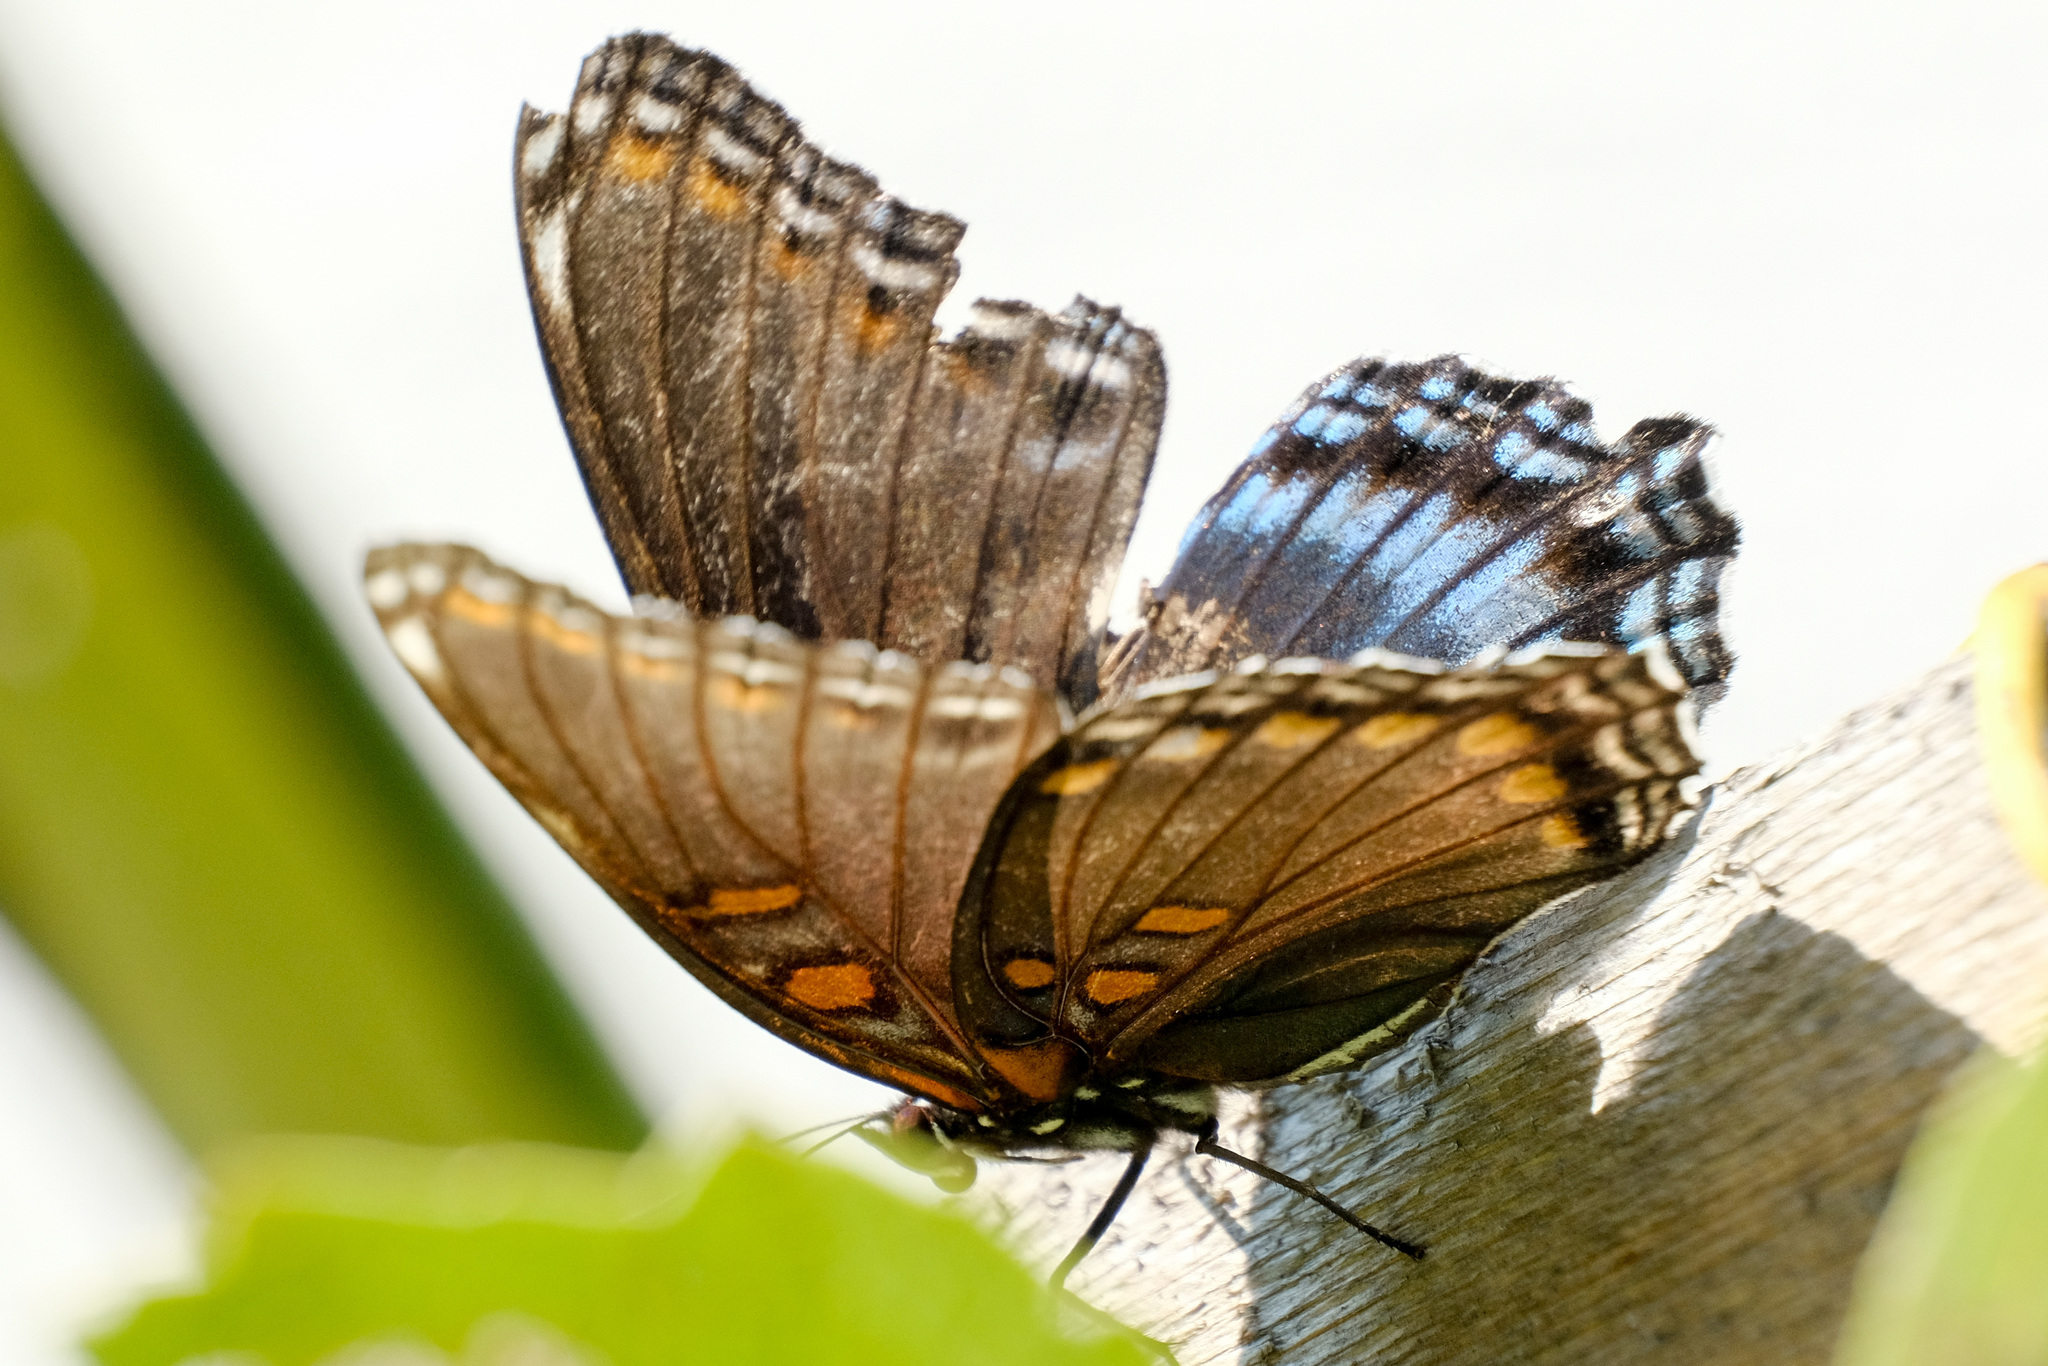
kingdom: Animalia
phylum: Arthropoda
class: Insecta
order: Lepidoptera
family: Nymphalidae
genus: Limenitis
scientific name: Limenitis arthemis
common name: Red-spotted admiral
